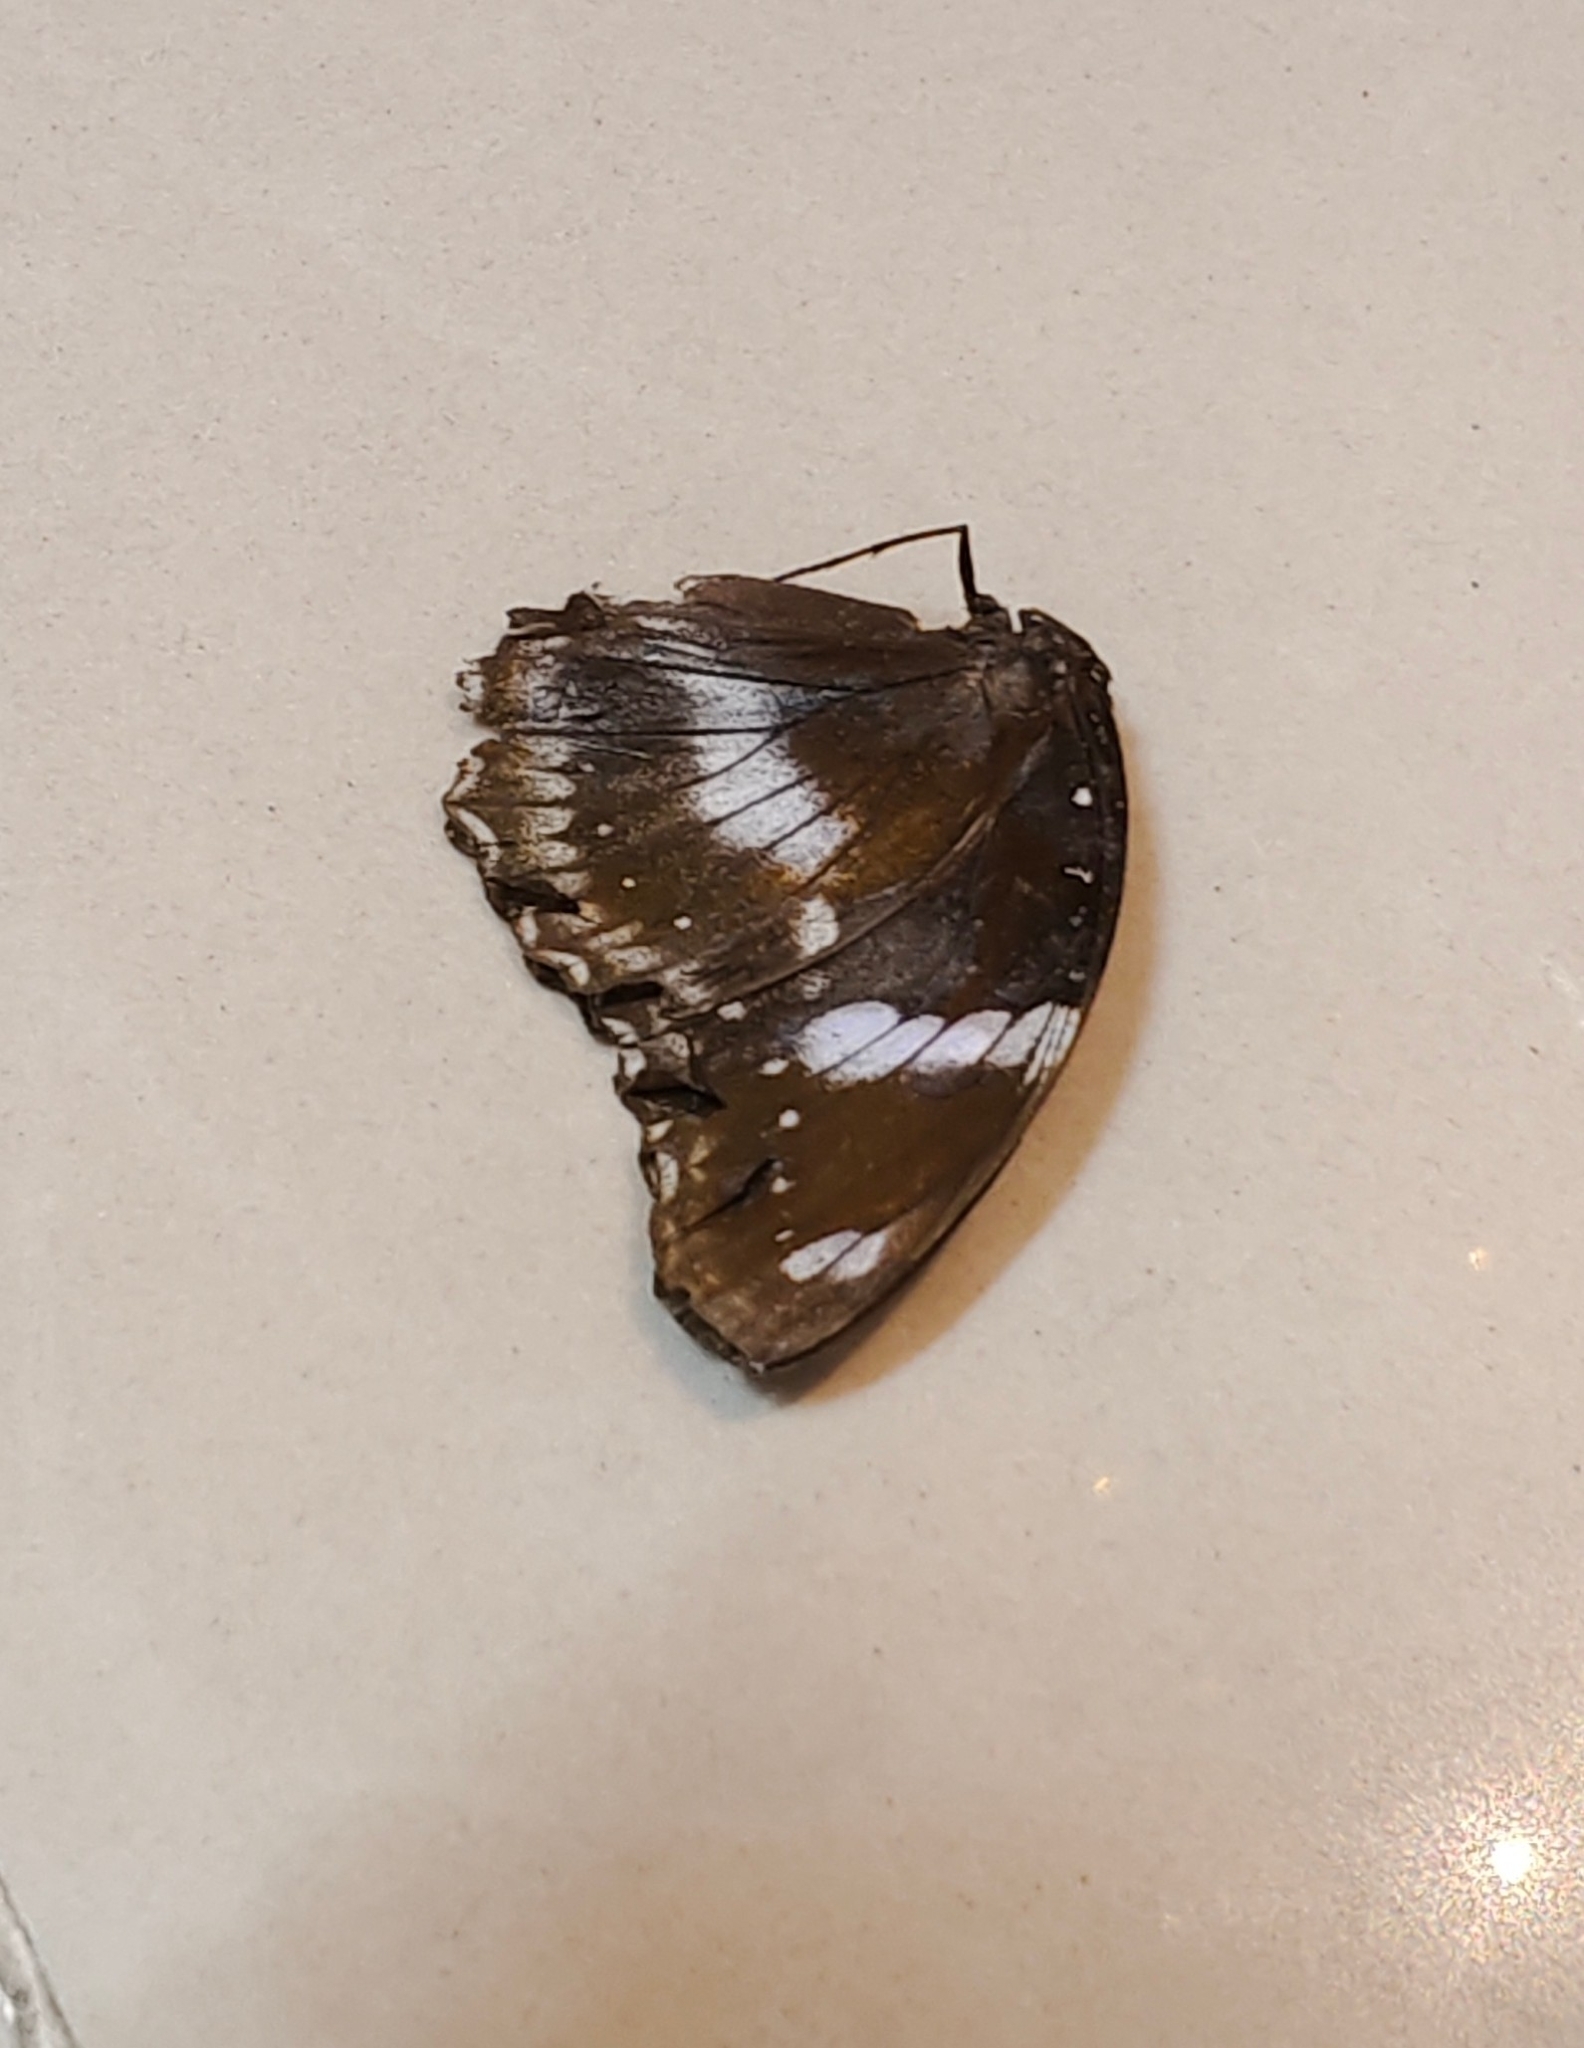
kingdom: Animalia
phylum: Arthropoda
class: Insecta
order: Lepidoptera
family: Nymphalidae
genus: Hypolimnas
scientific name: Hypolimnas bolina
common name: Great eggfly
